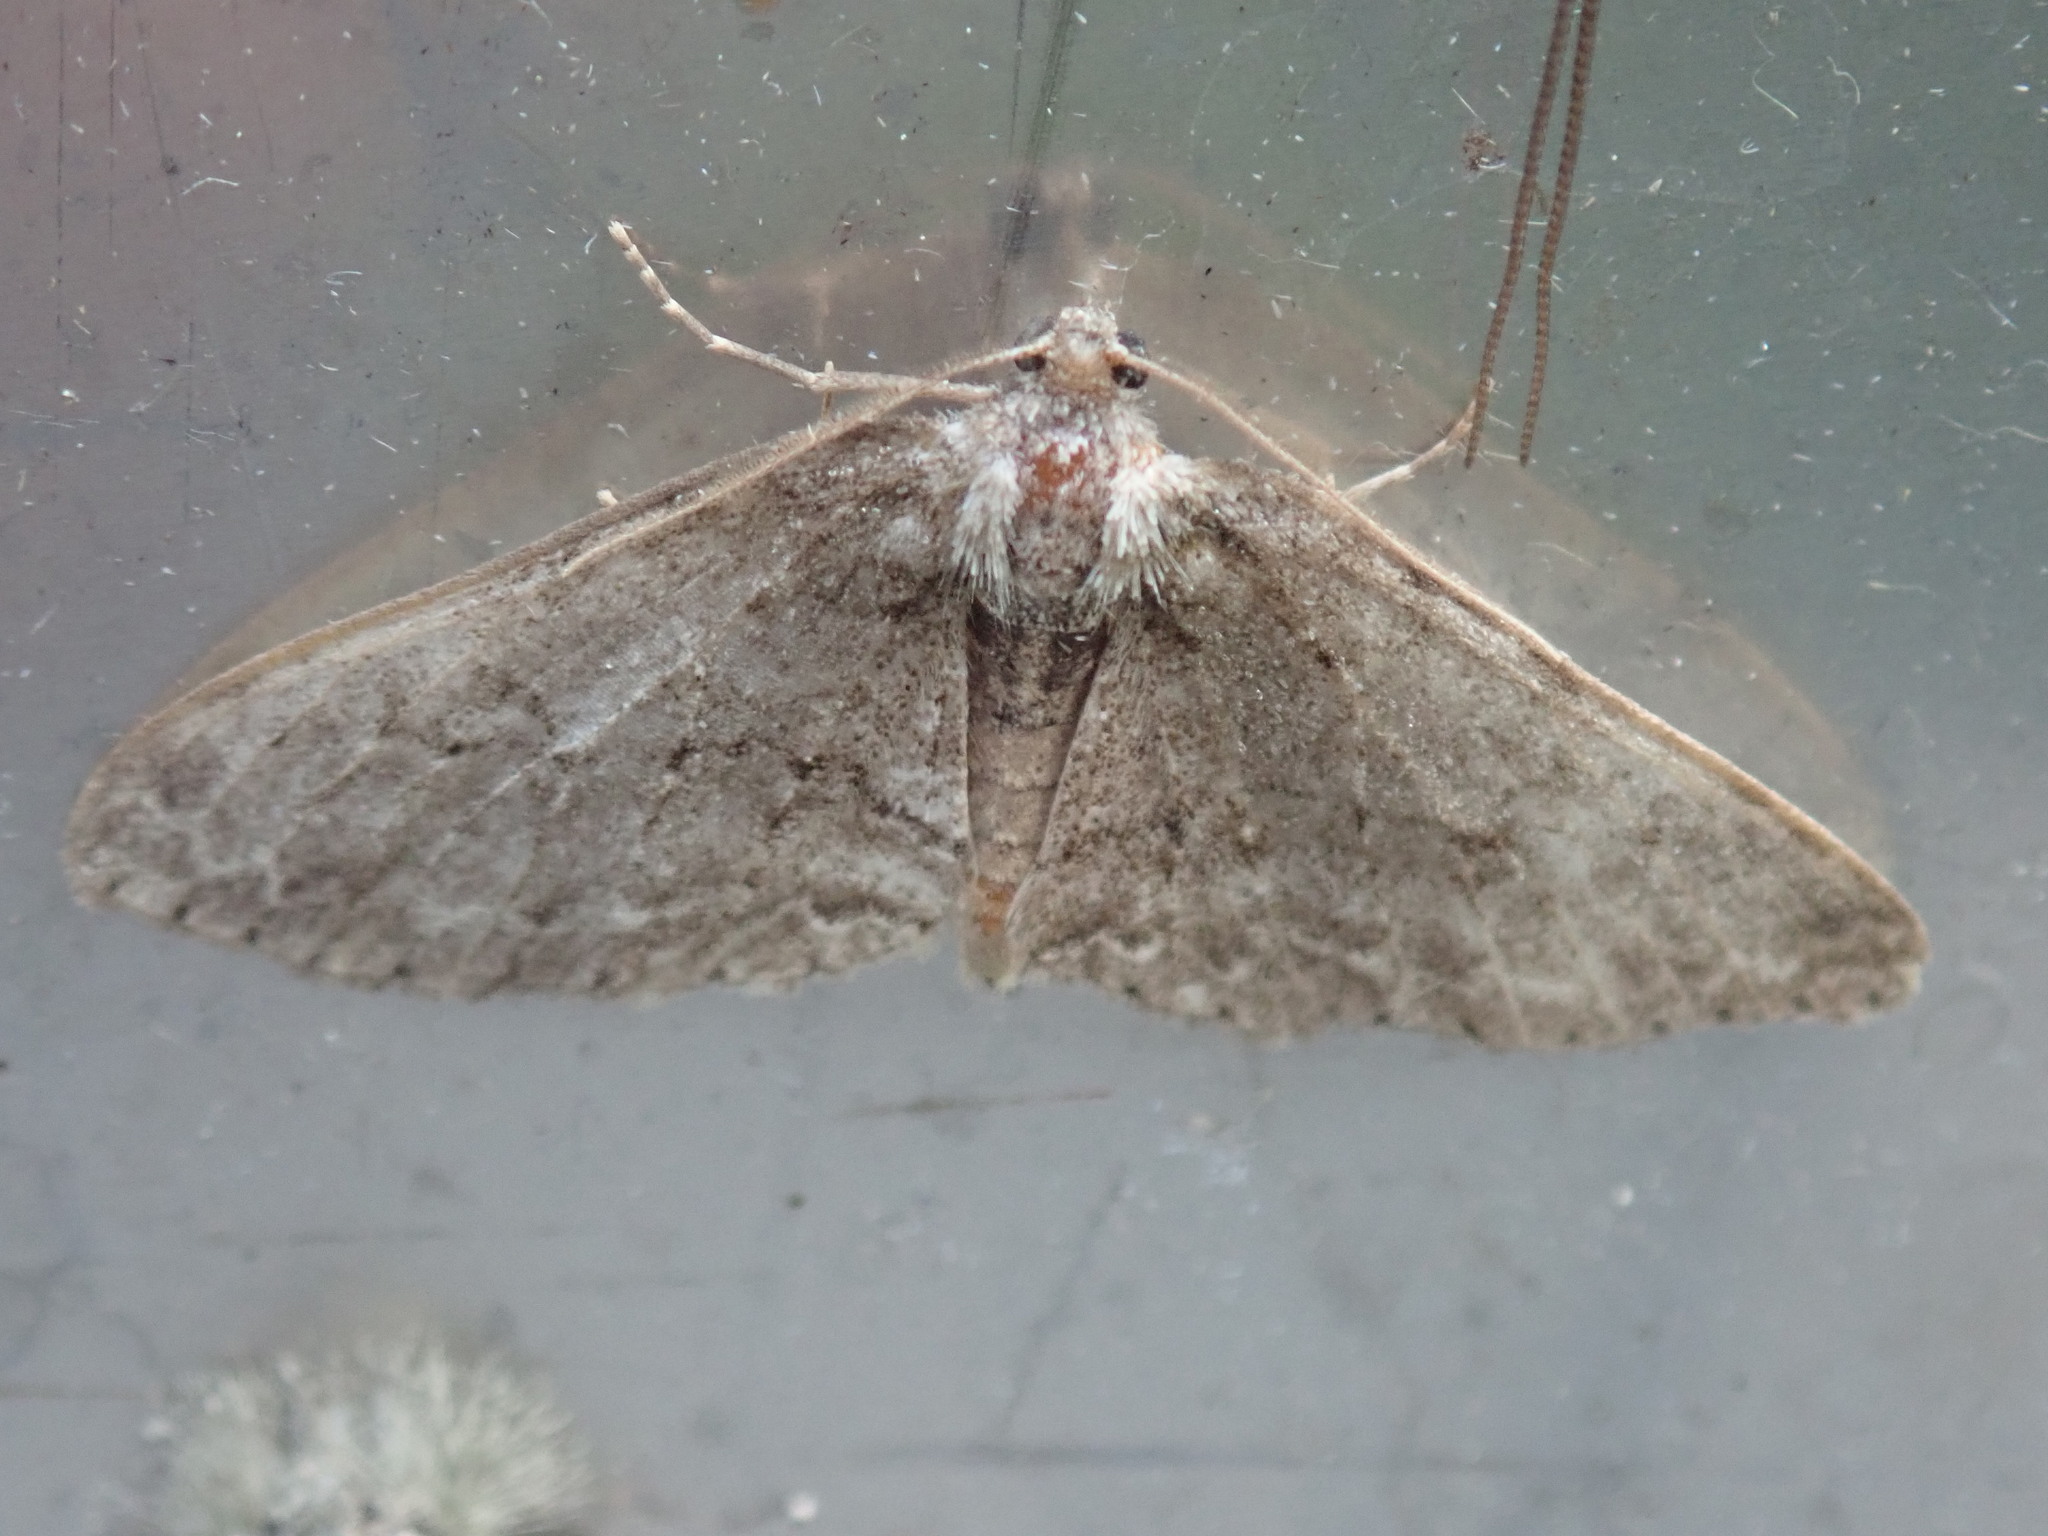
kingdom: Animalia
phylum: Arthropoda
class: Insecta
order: Lepidoptera
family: Geometridae
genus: Ectropis
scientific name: Ectropis crepuscularia
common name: Engrailed
